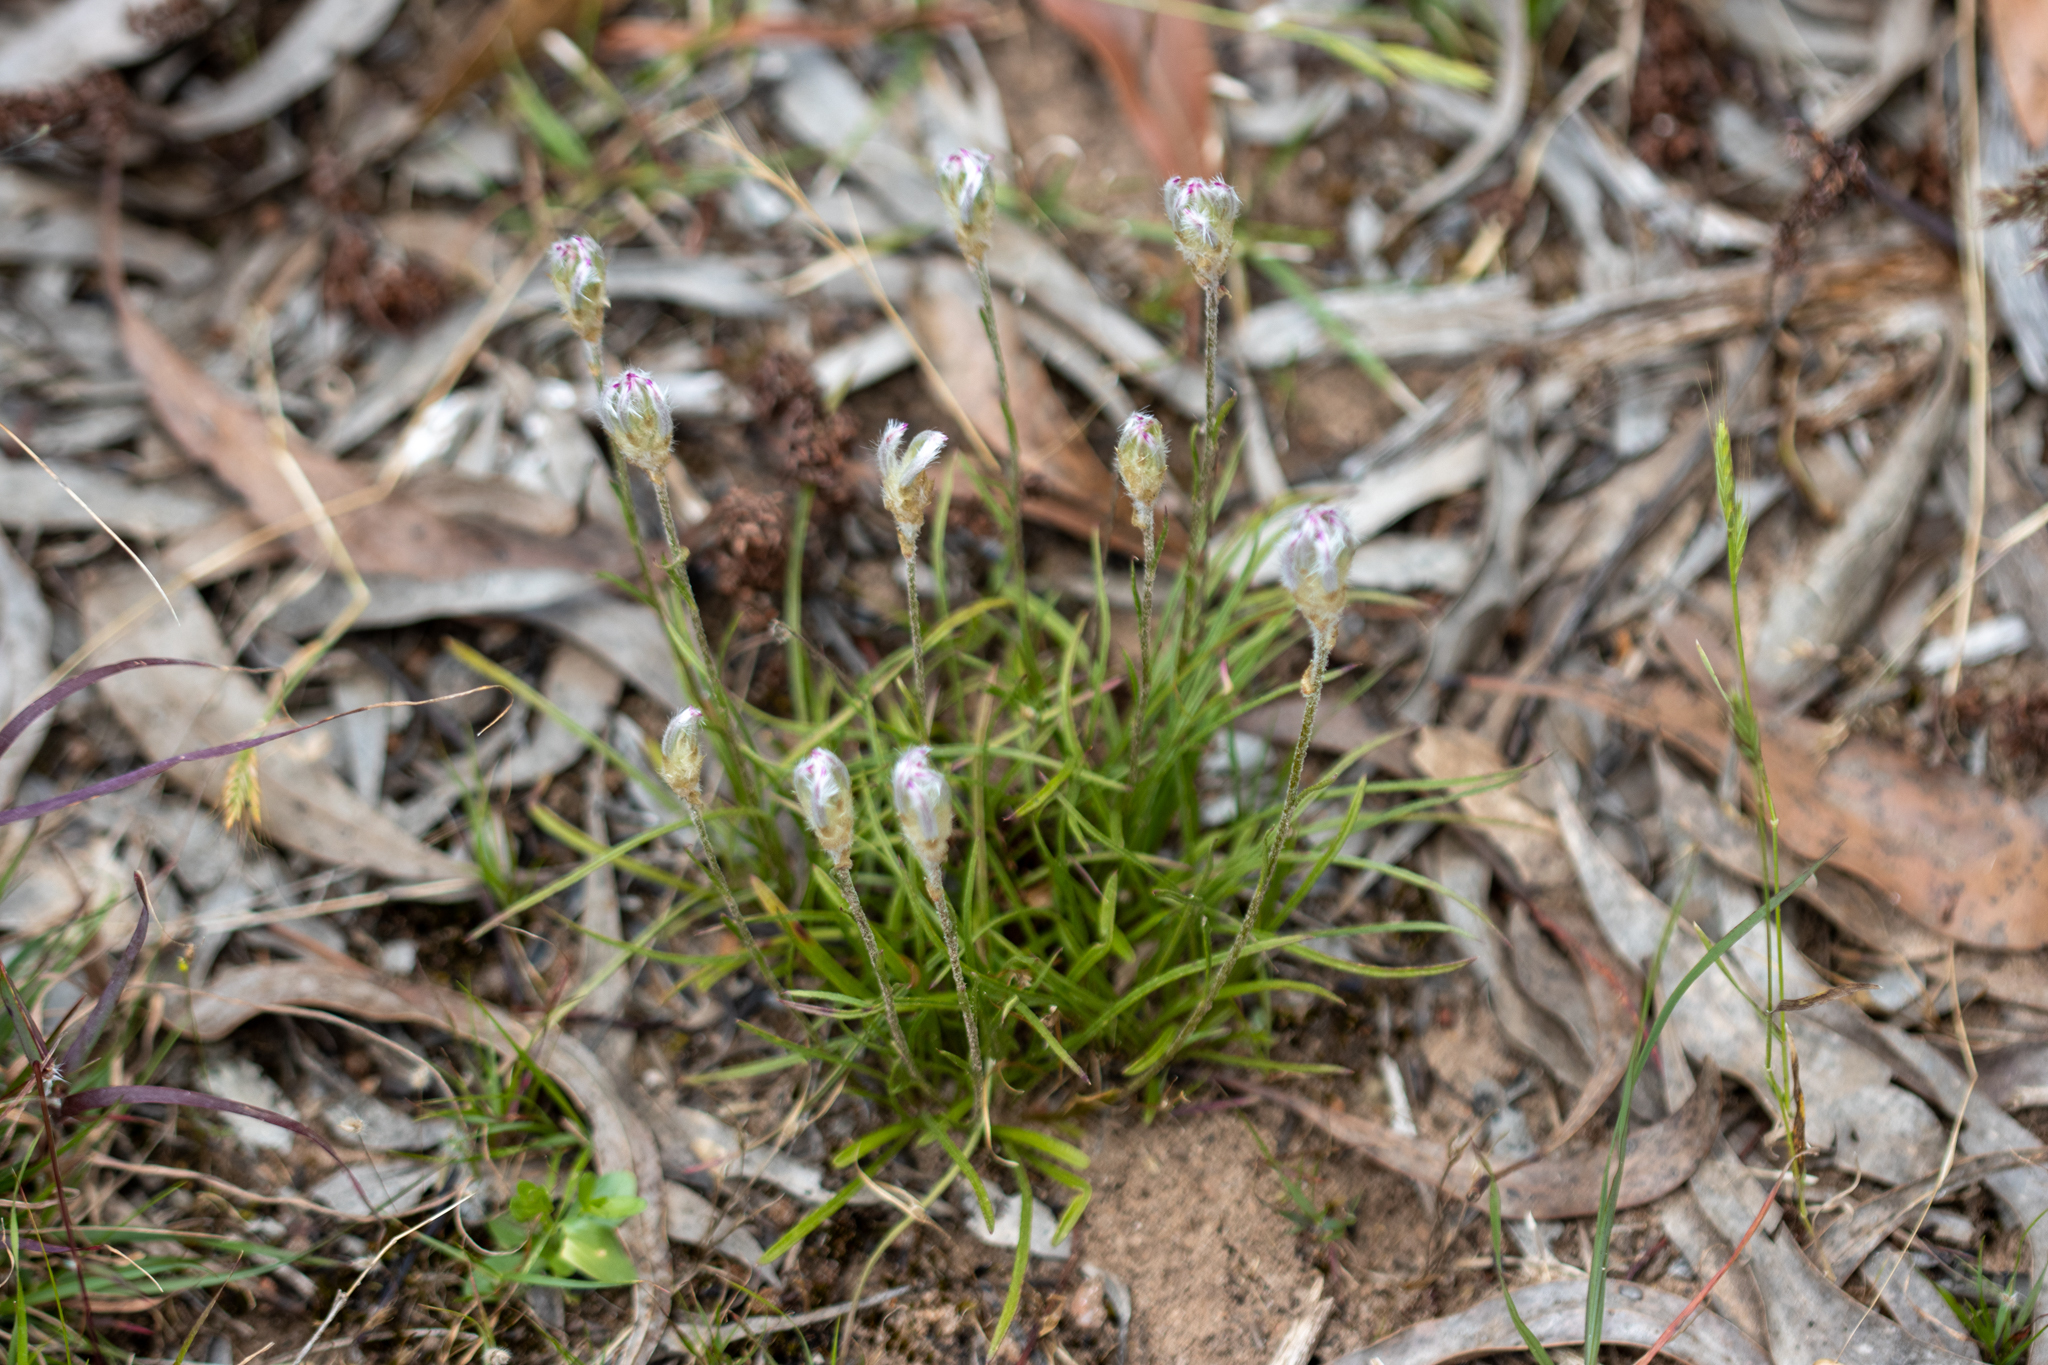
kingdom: Plantae
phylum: Tracheophyta
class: Magnoliopsida
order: Caryophyllales
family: Amaranthaceae
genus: Ptilotus
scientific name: Ptilotus erubescens
